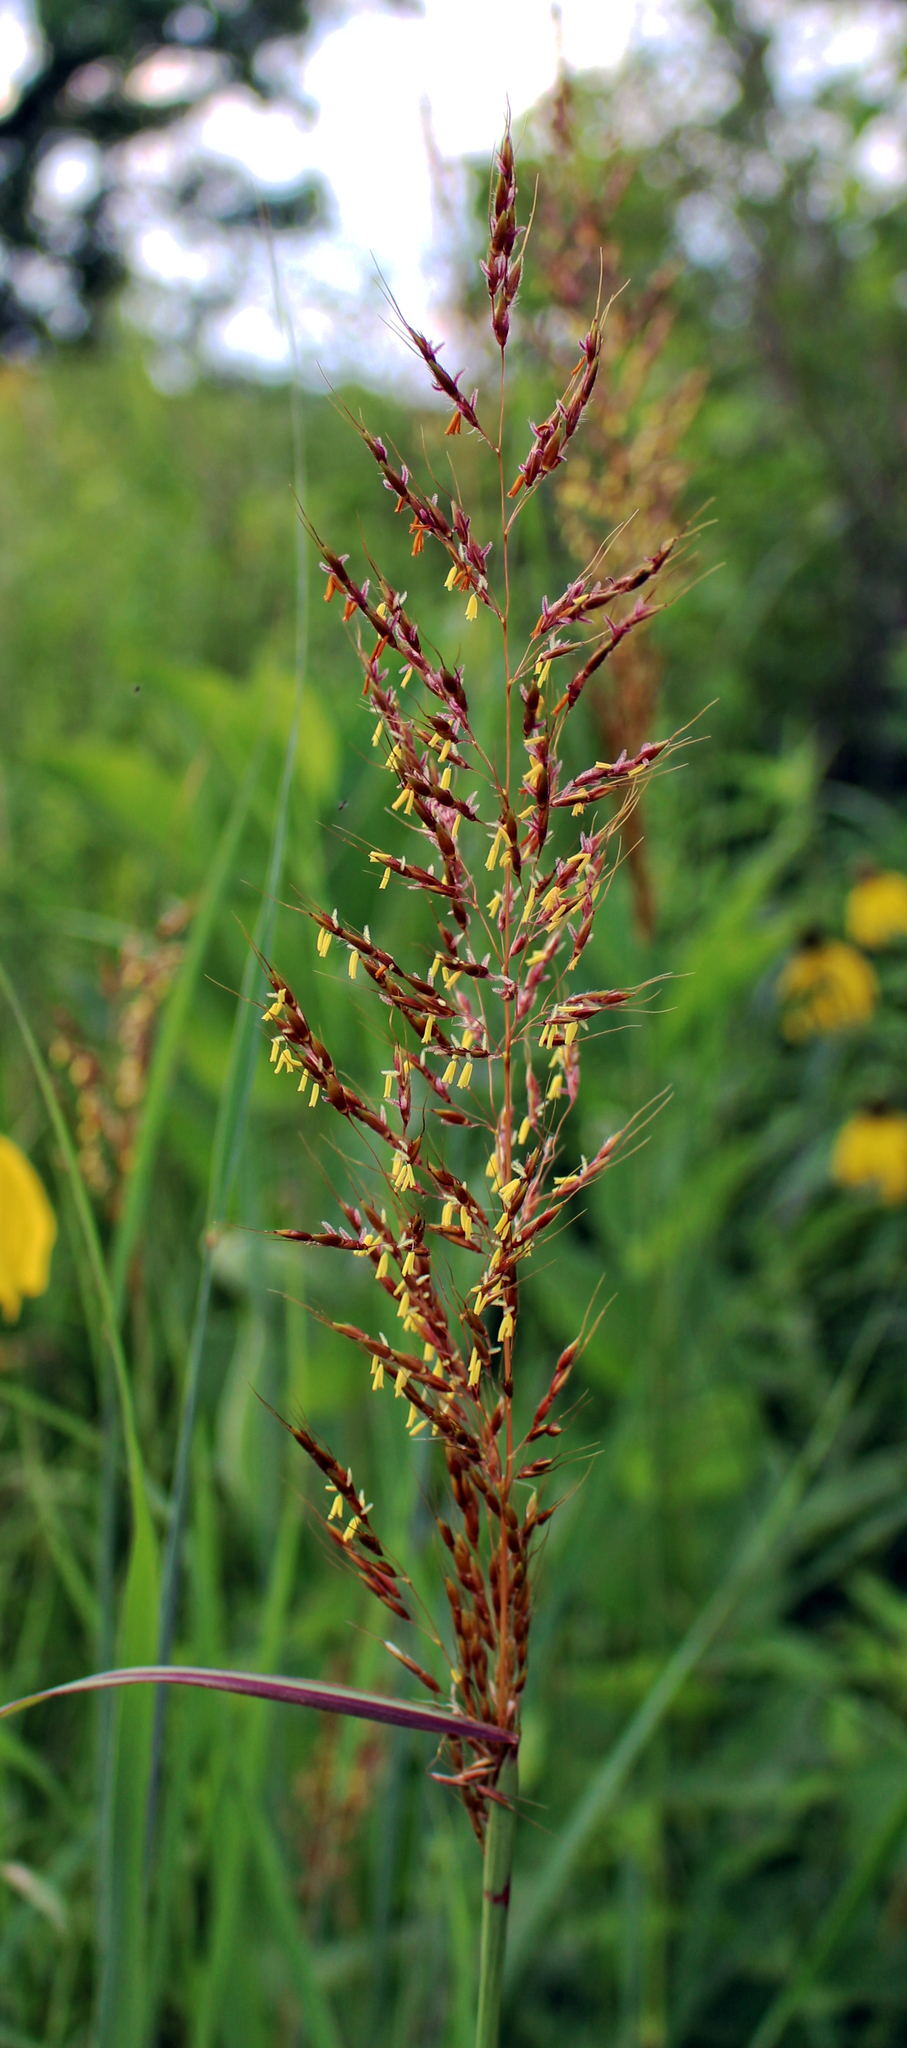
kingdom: Plantae
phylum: Tracheophyta
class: Liliopsida
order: Poales
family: Poaceae
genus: Sorghastrum
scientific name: Sorghastrum nutans
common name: Indian grass
